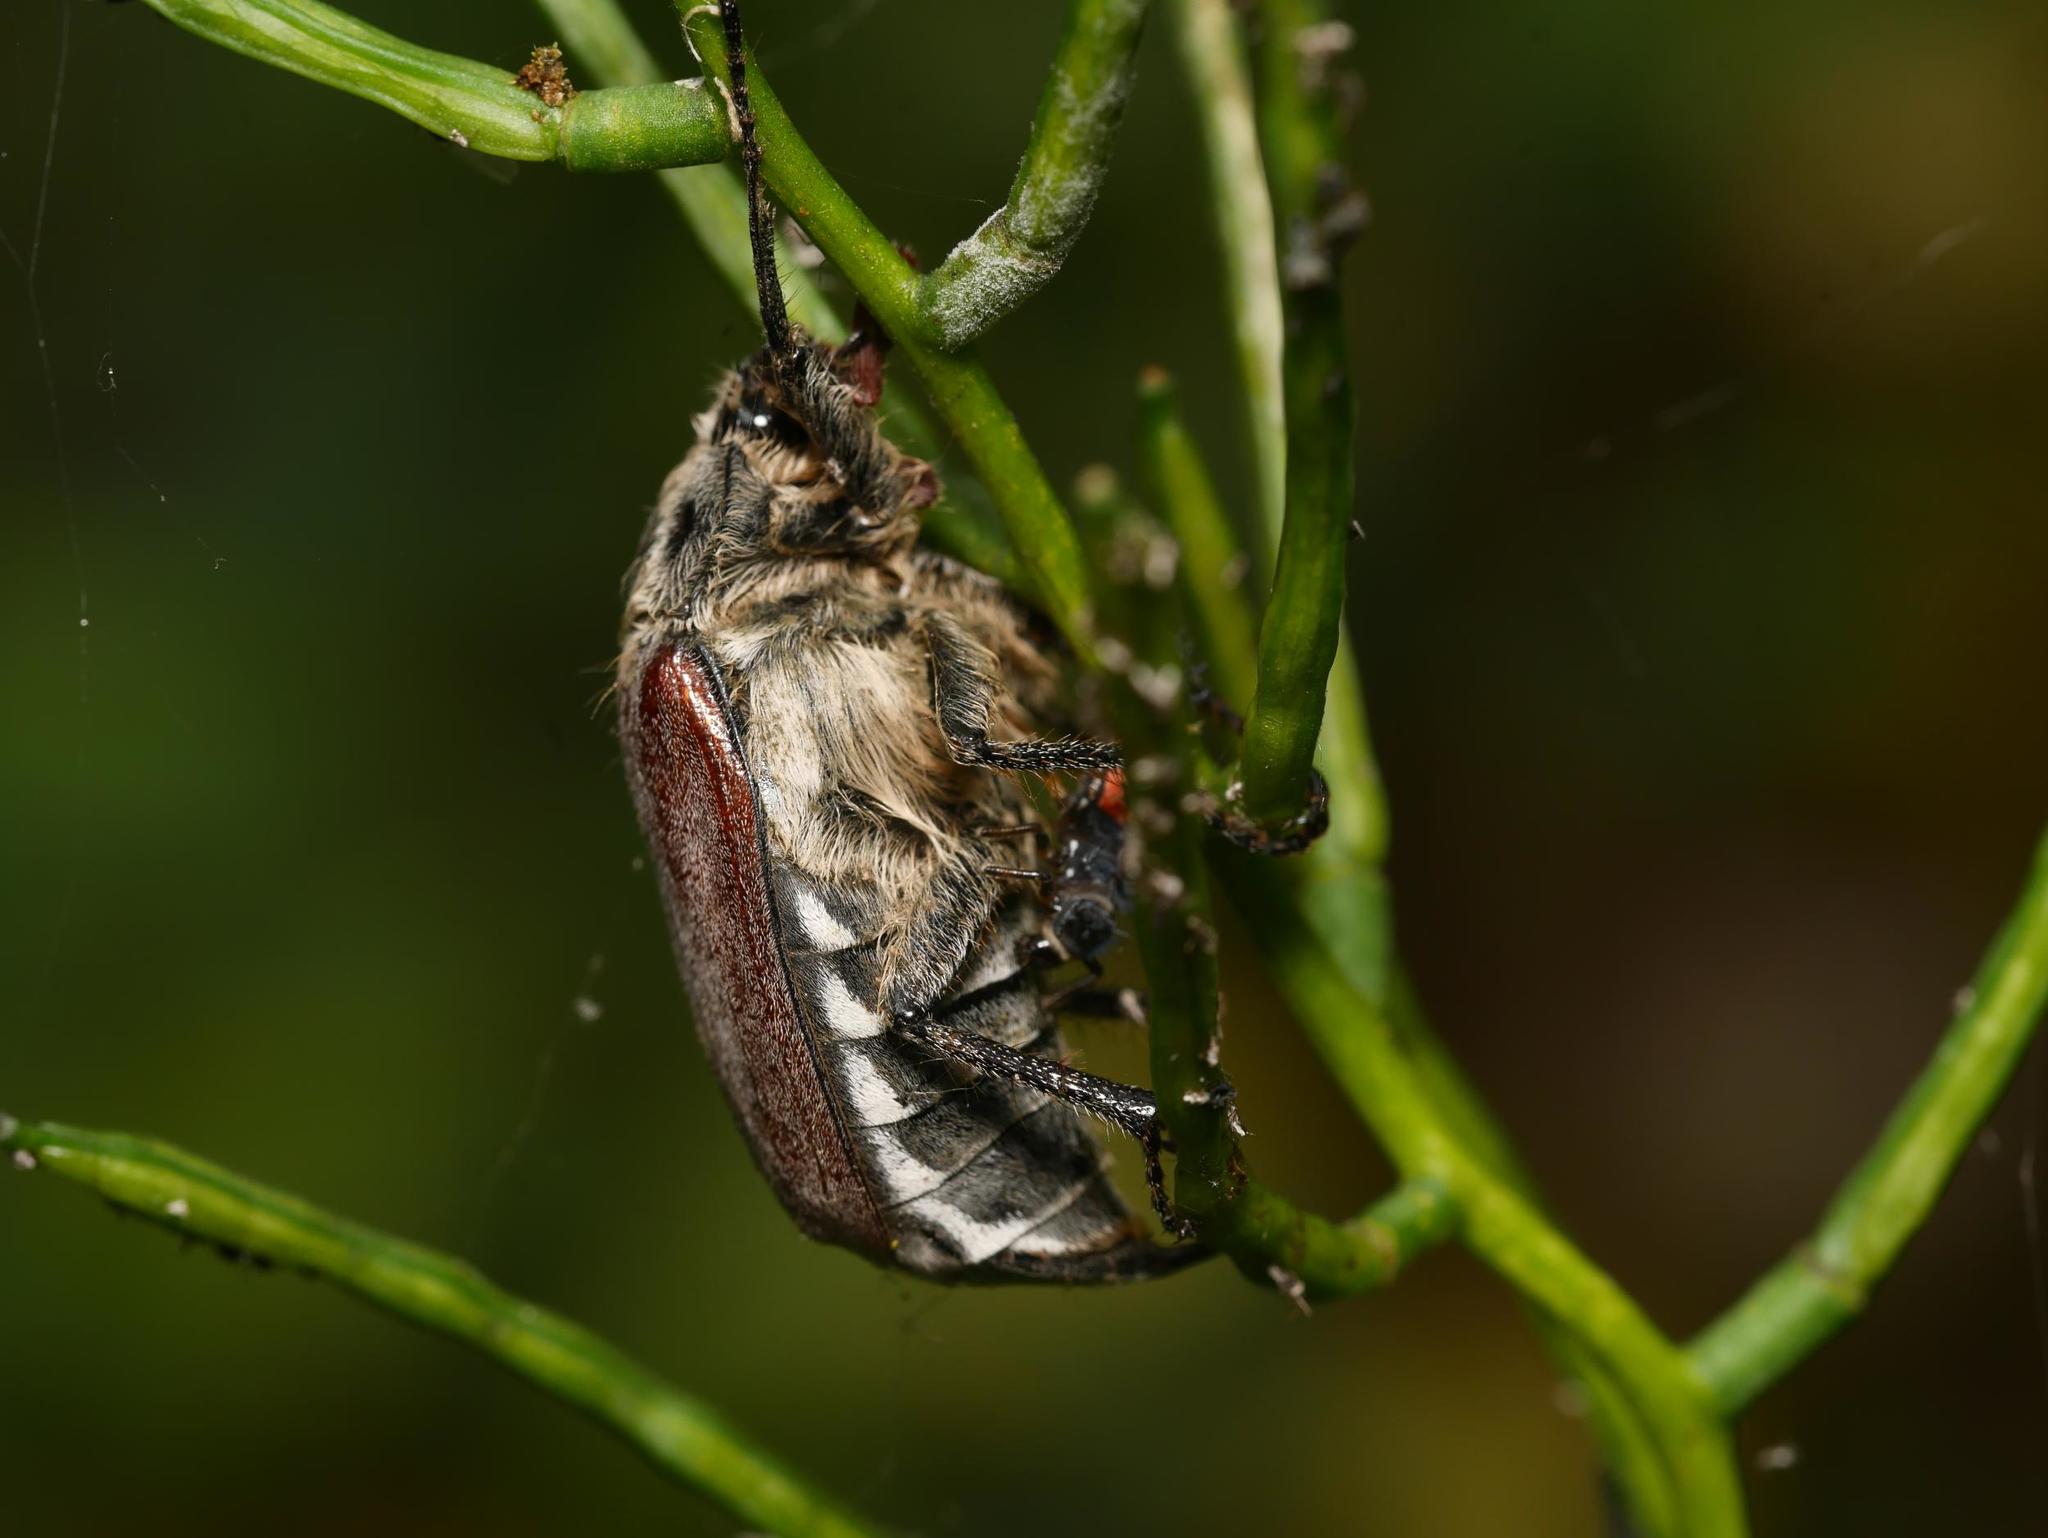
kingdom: Animalia
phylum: Arthropoda
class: Insecta
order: Coleoptera
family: Scarabaeidae
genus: Melolontha
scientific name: Melolontha melolontha
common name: Cockchafer maybeetle
